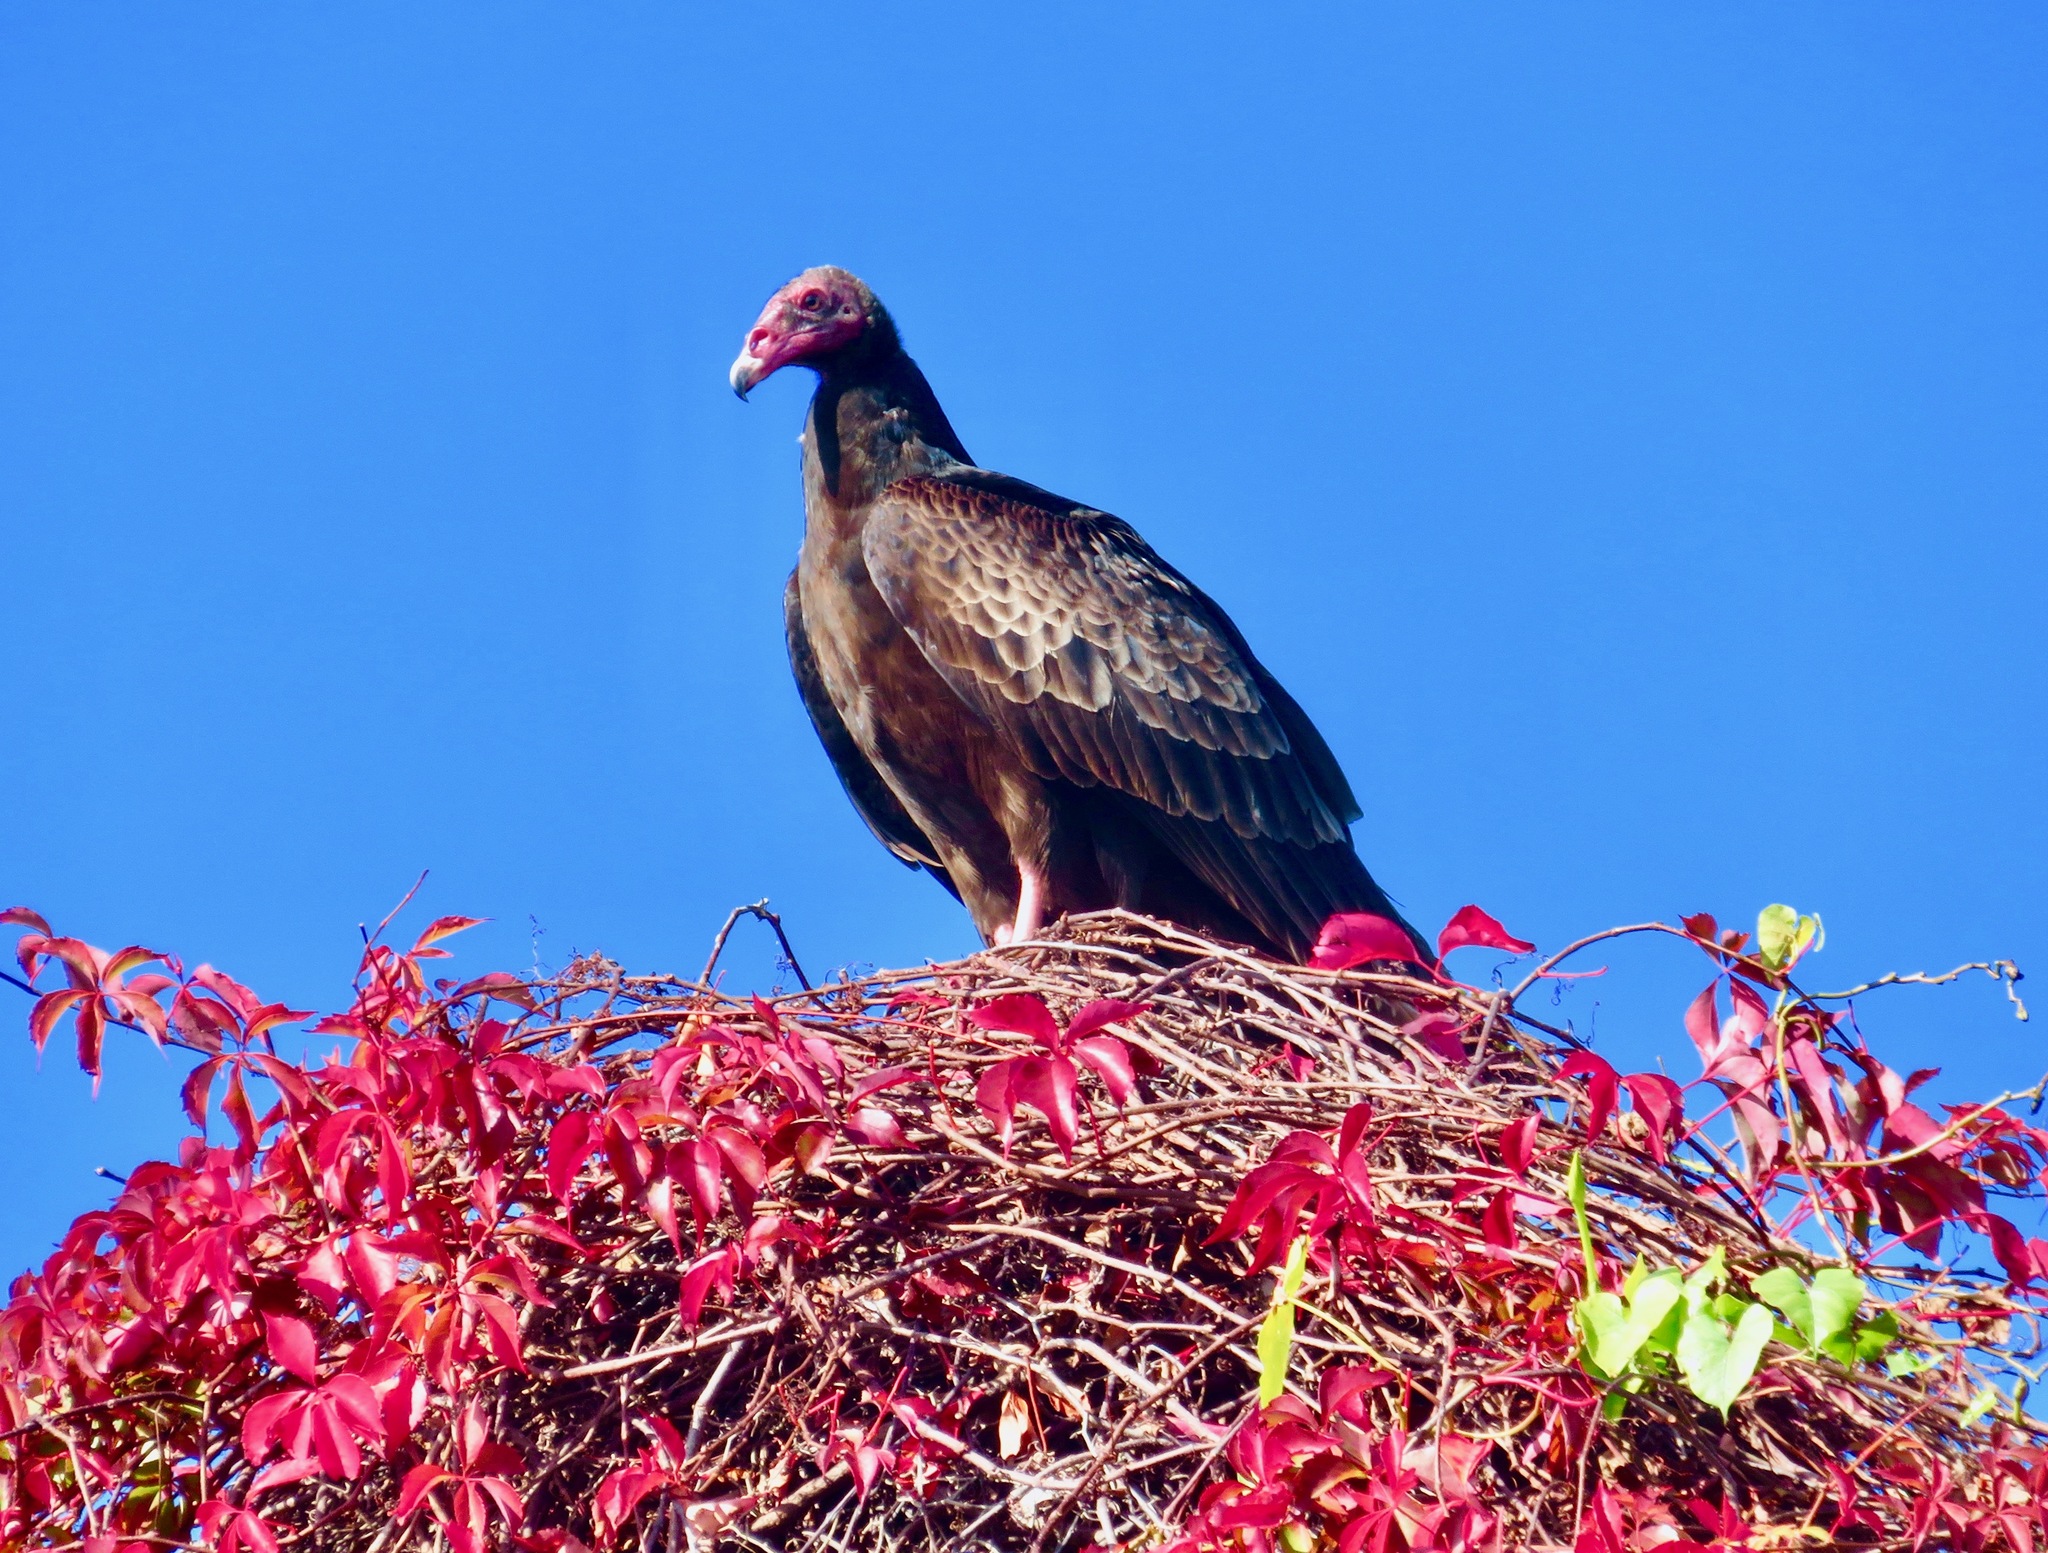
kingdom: Animalia
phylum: Chordata
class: Aves
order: Accipitriformes
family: Cathartidae
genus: Cathartes
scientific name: Cathartes aura
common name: Turkey vulture
